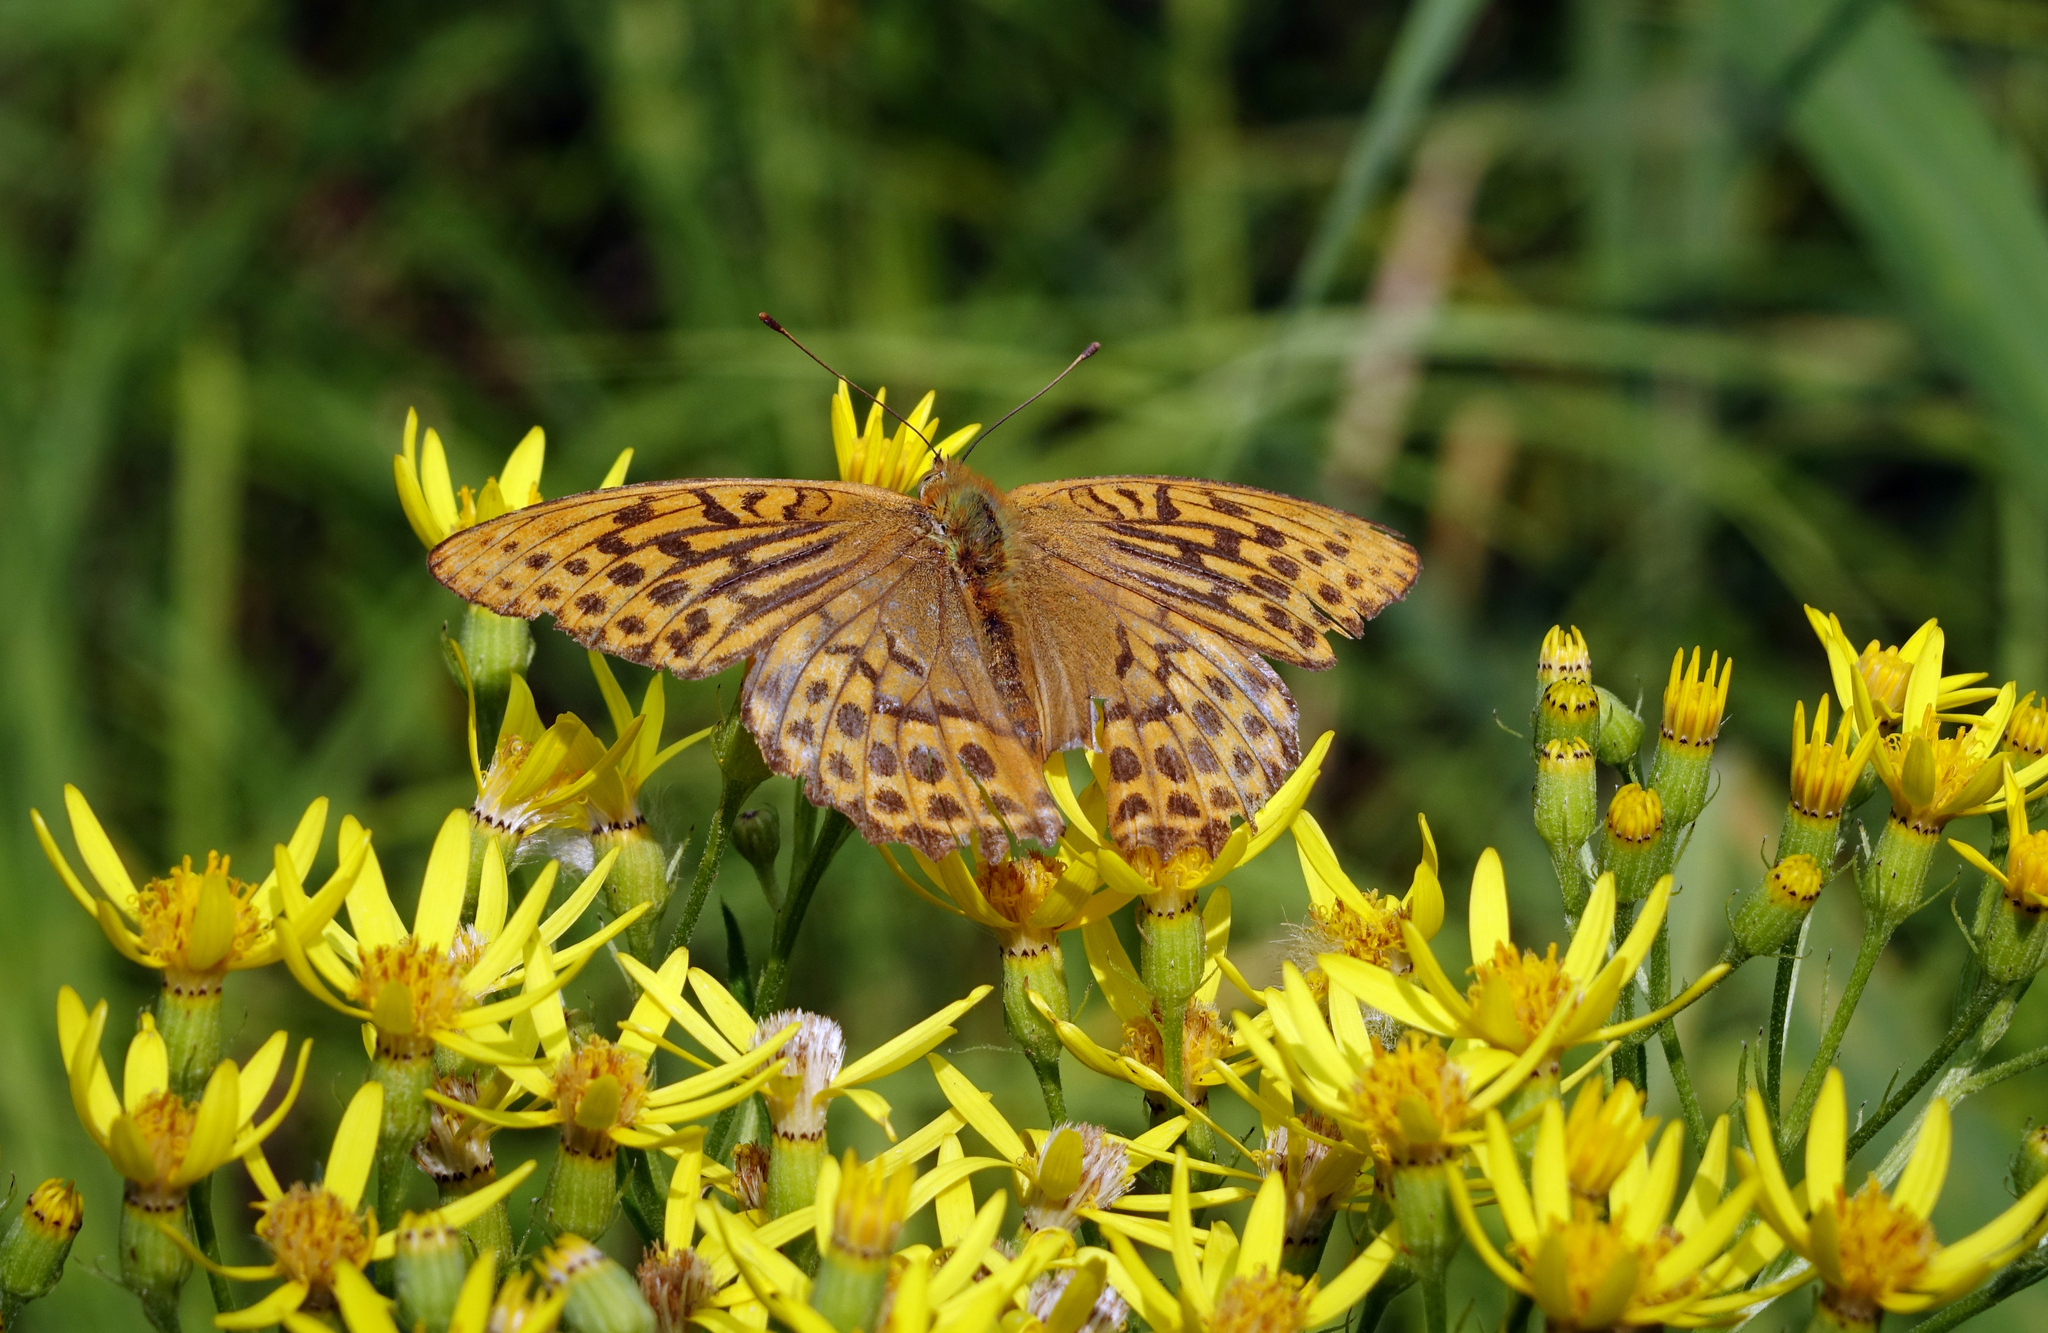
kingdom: Animalia
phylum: Arthropoda
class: Insecta
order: Lepidoptera
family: Nymphalidae
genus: Argynnis
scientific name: Argynnis paphia
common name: Silver-washed fritillary
